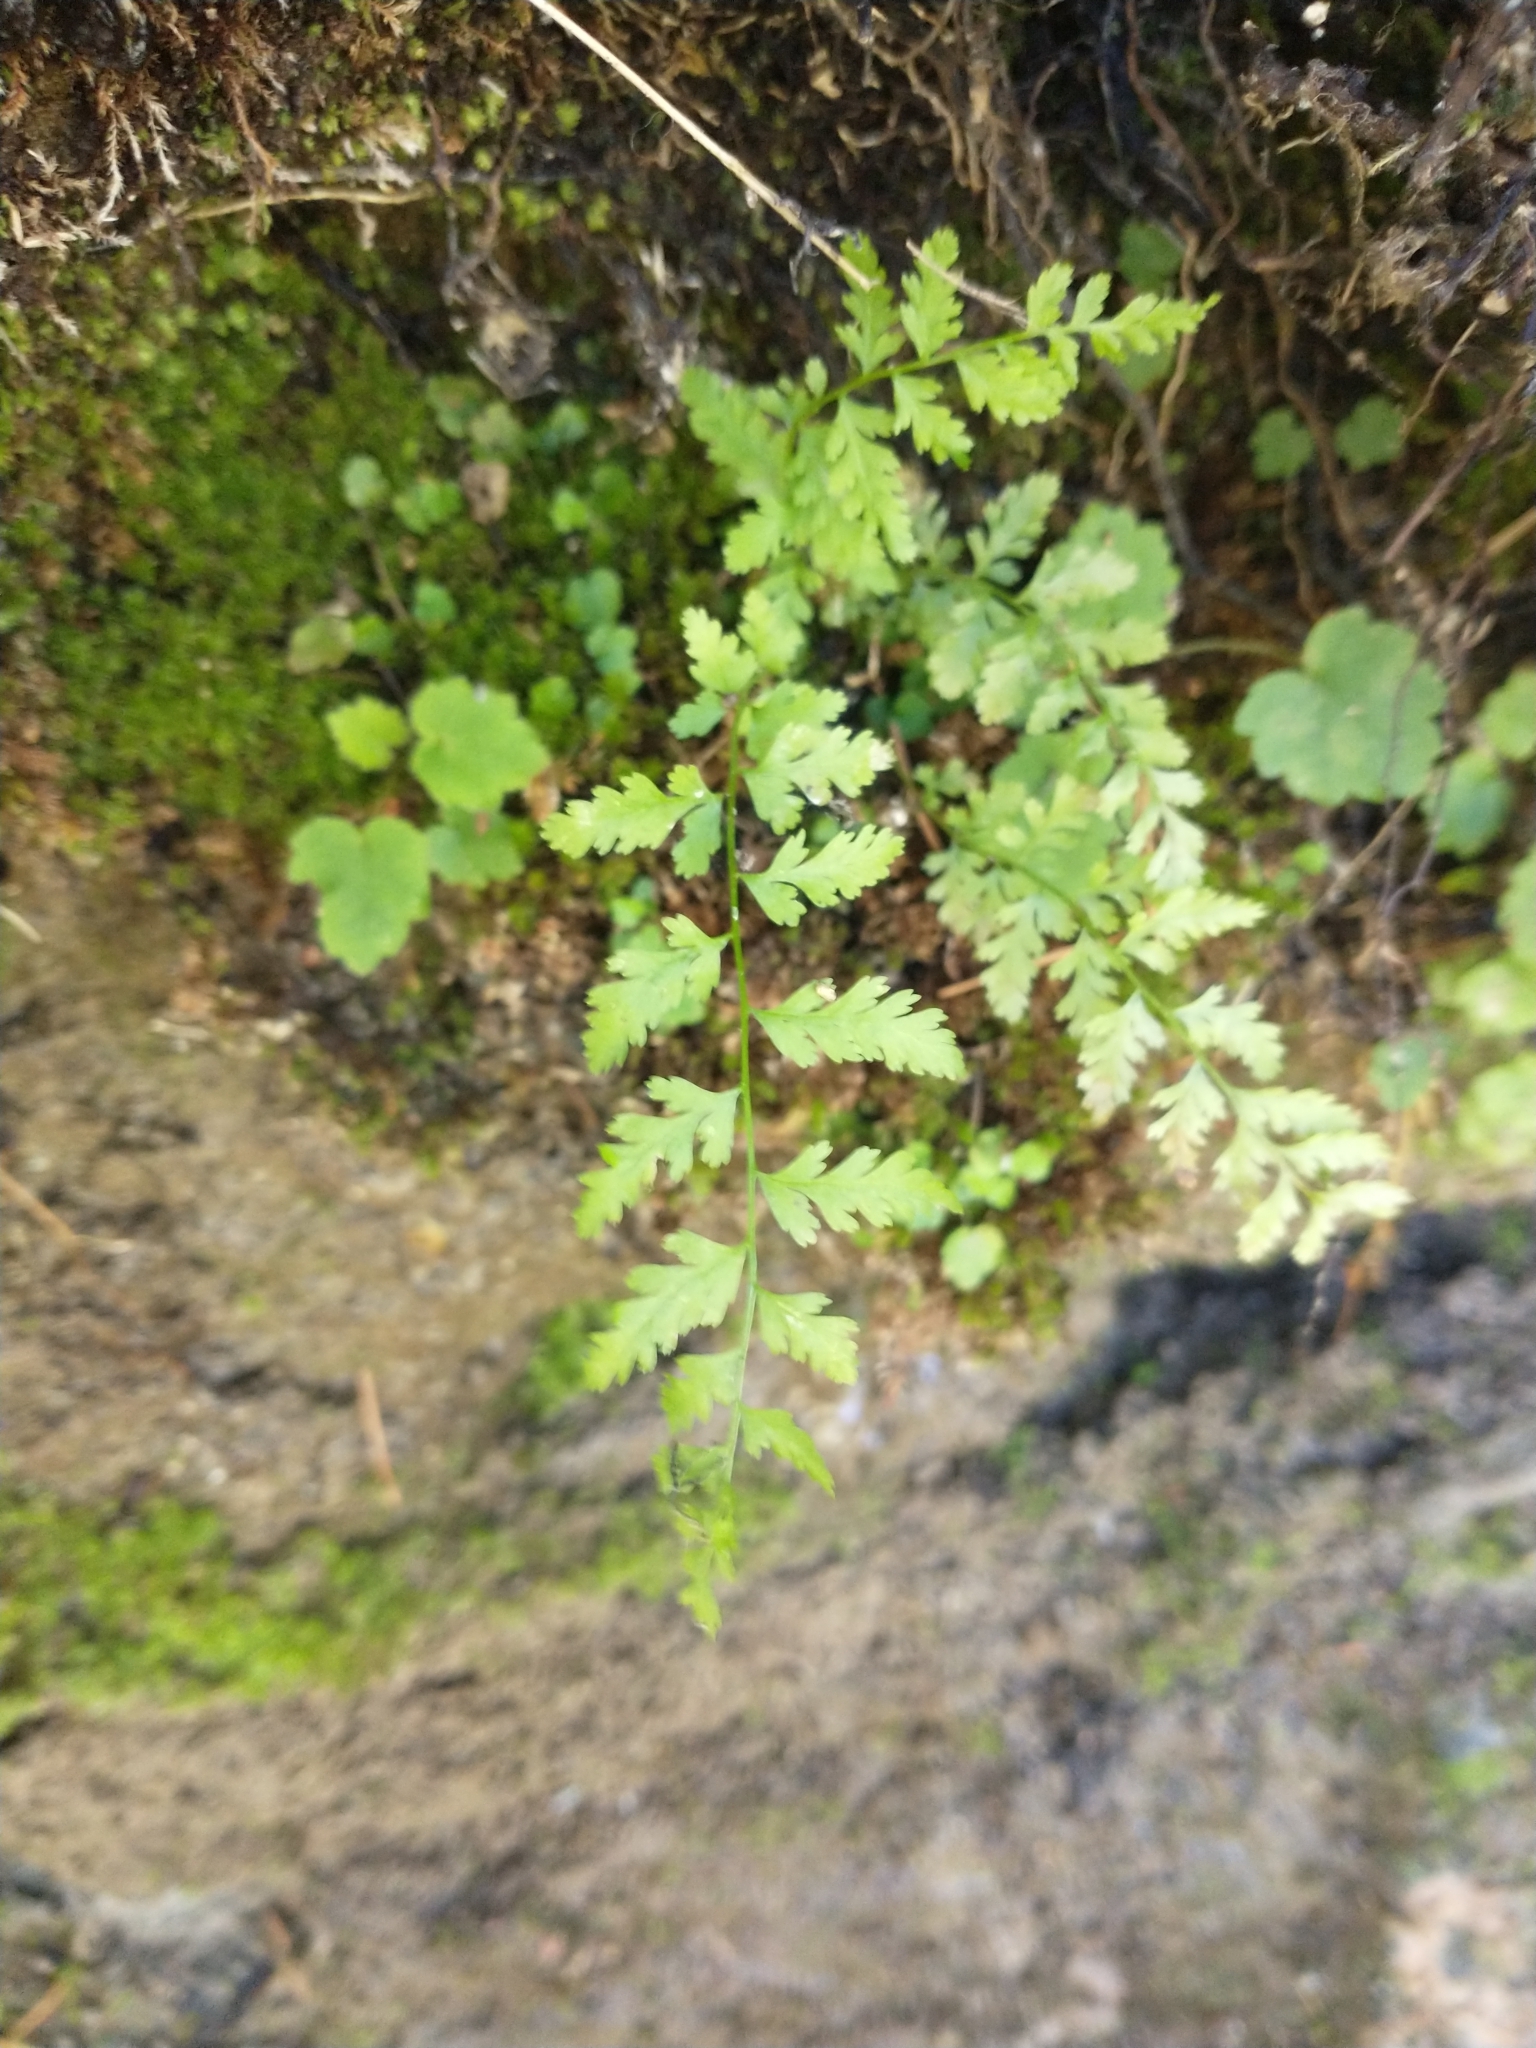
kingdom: Plantae
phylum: Tracheophyta
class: Polypodiopsida
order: Polypodiales
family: Cystopteridaceae
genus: Cystopteris
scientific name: Cystopteris fragilis
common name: Brittle bladder fern
